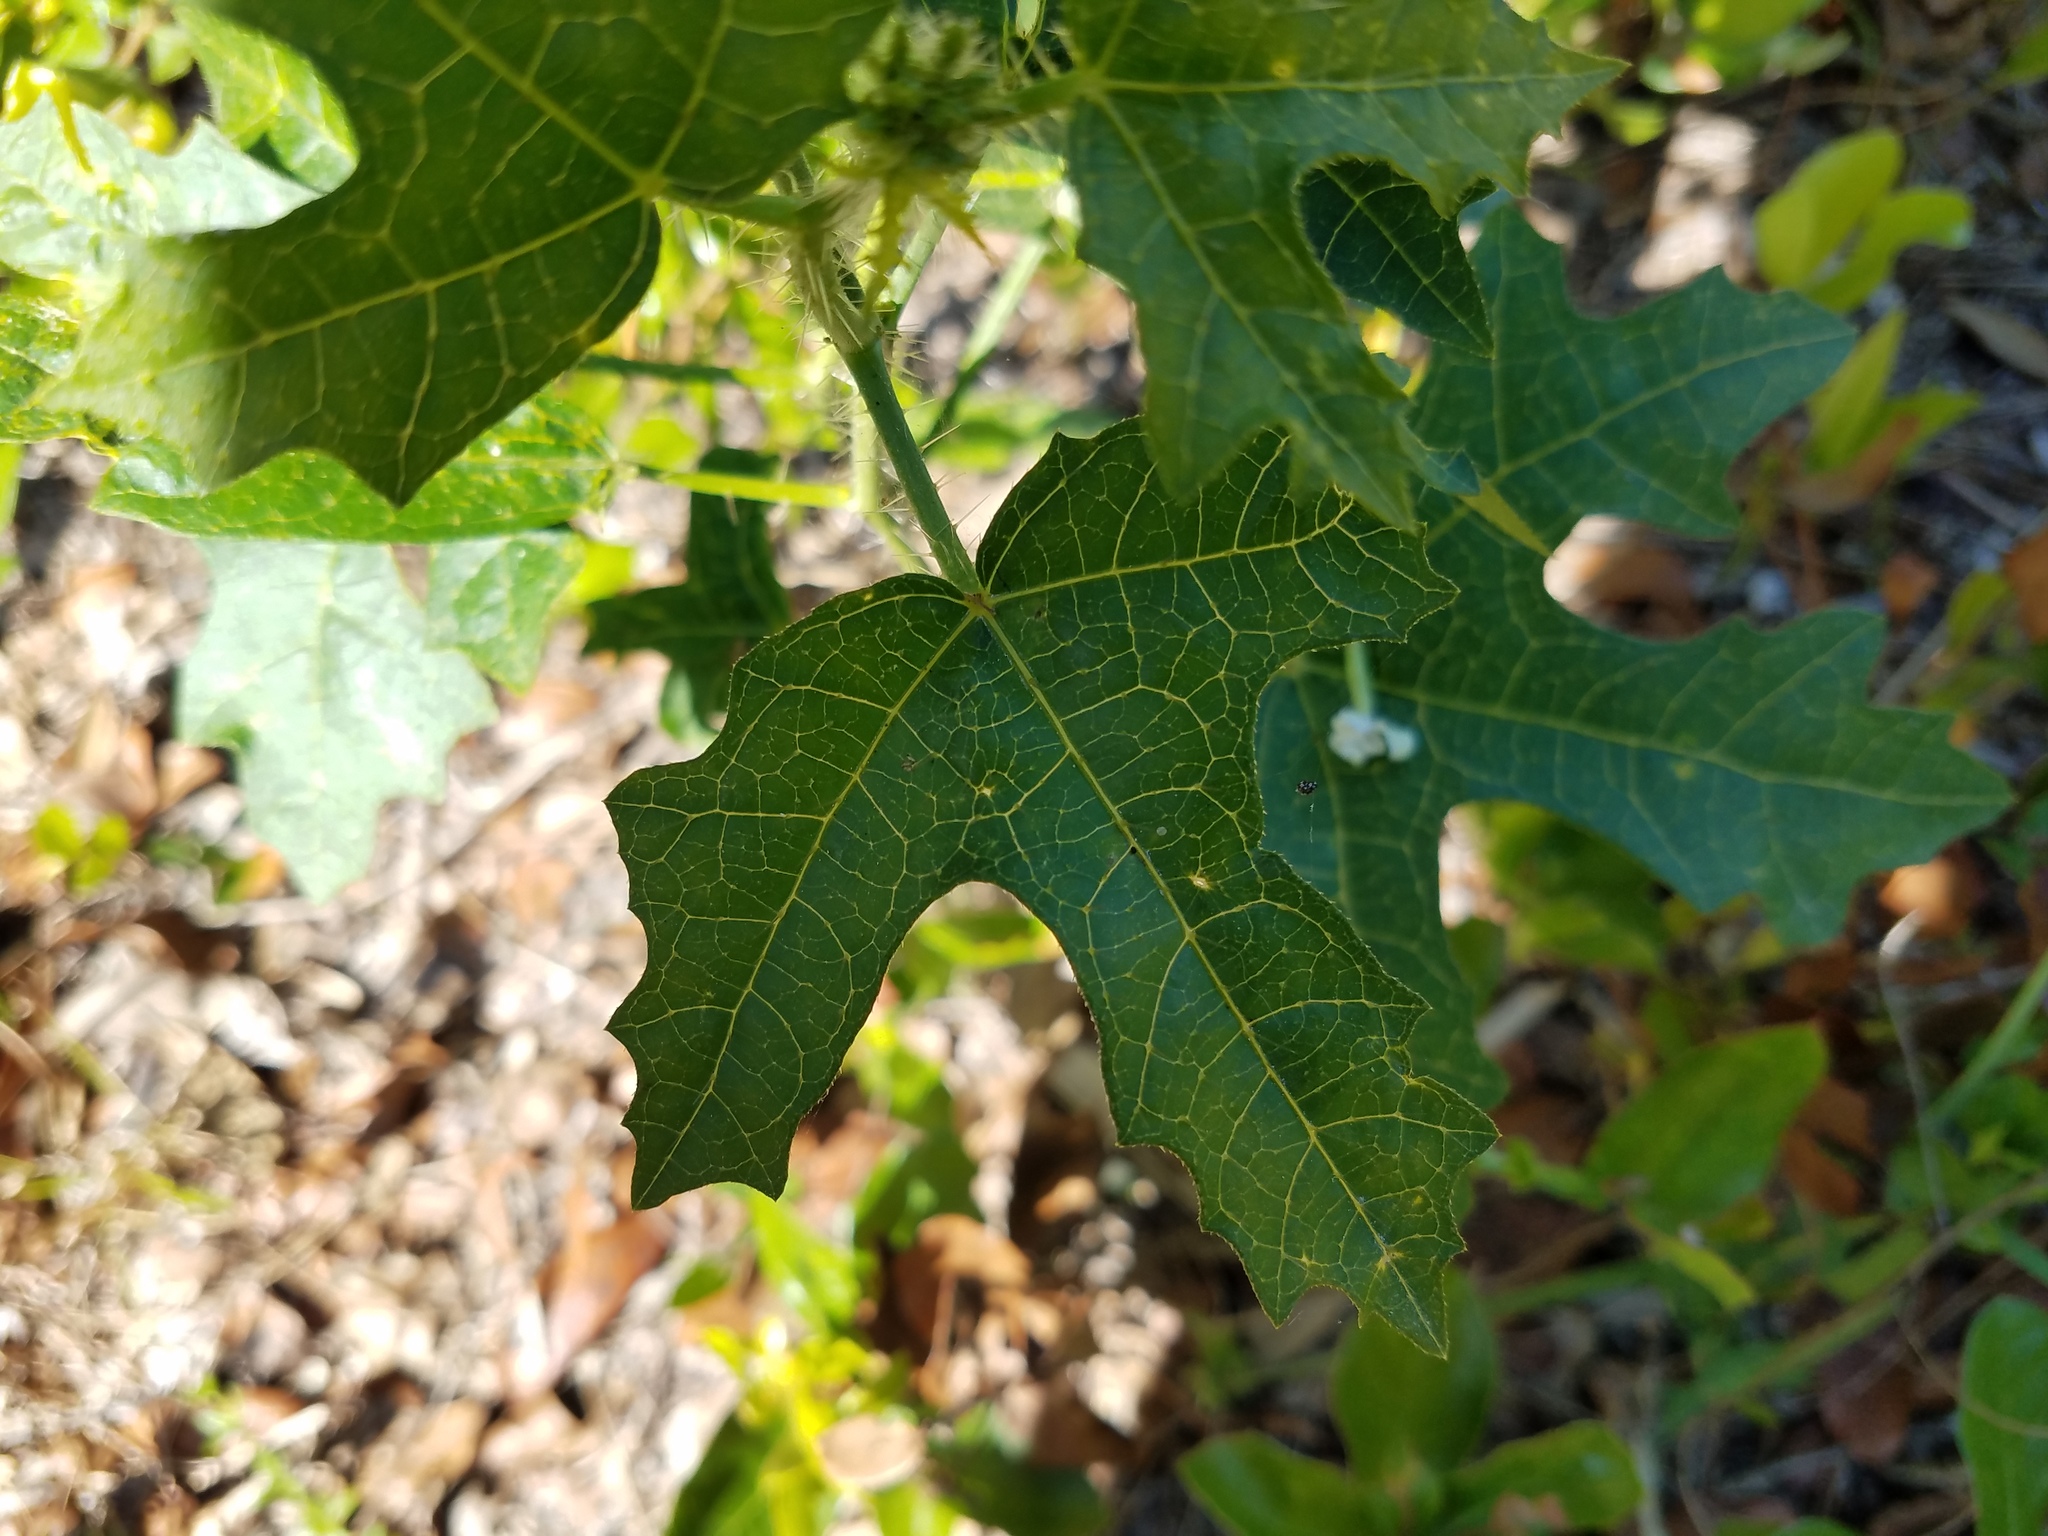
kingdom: Plantae
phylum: Tracheophyta
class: Magnoliopsida
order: Malpighiales
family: Euphorbiaceae
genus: Cnidoscolus
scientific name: Cnidoscolus stimulosus
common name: Bull-nettle
